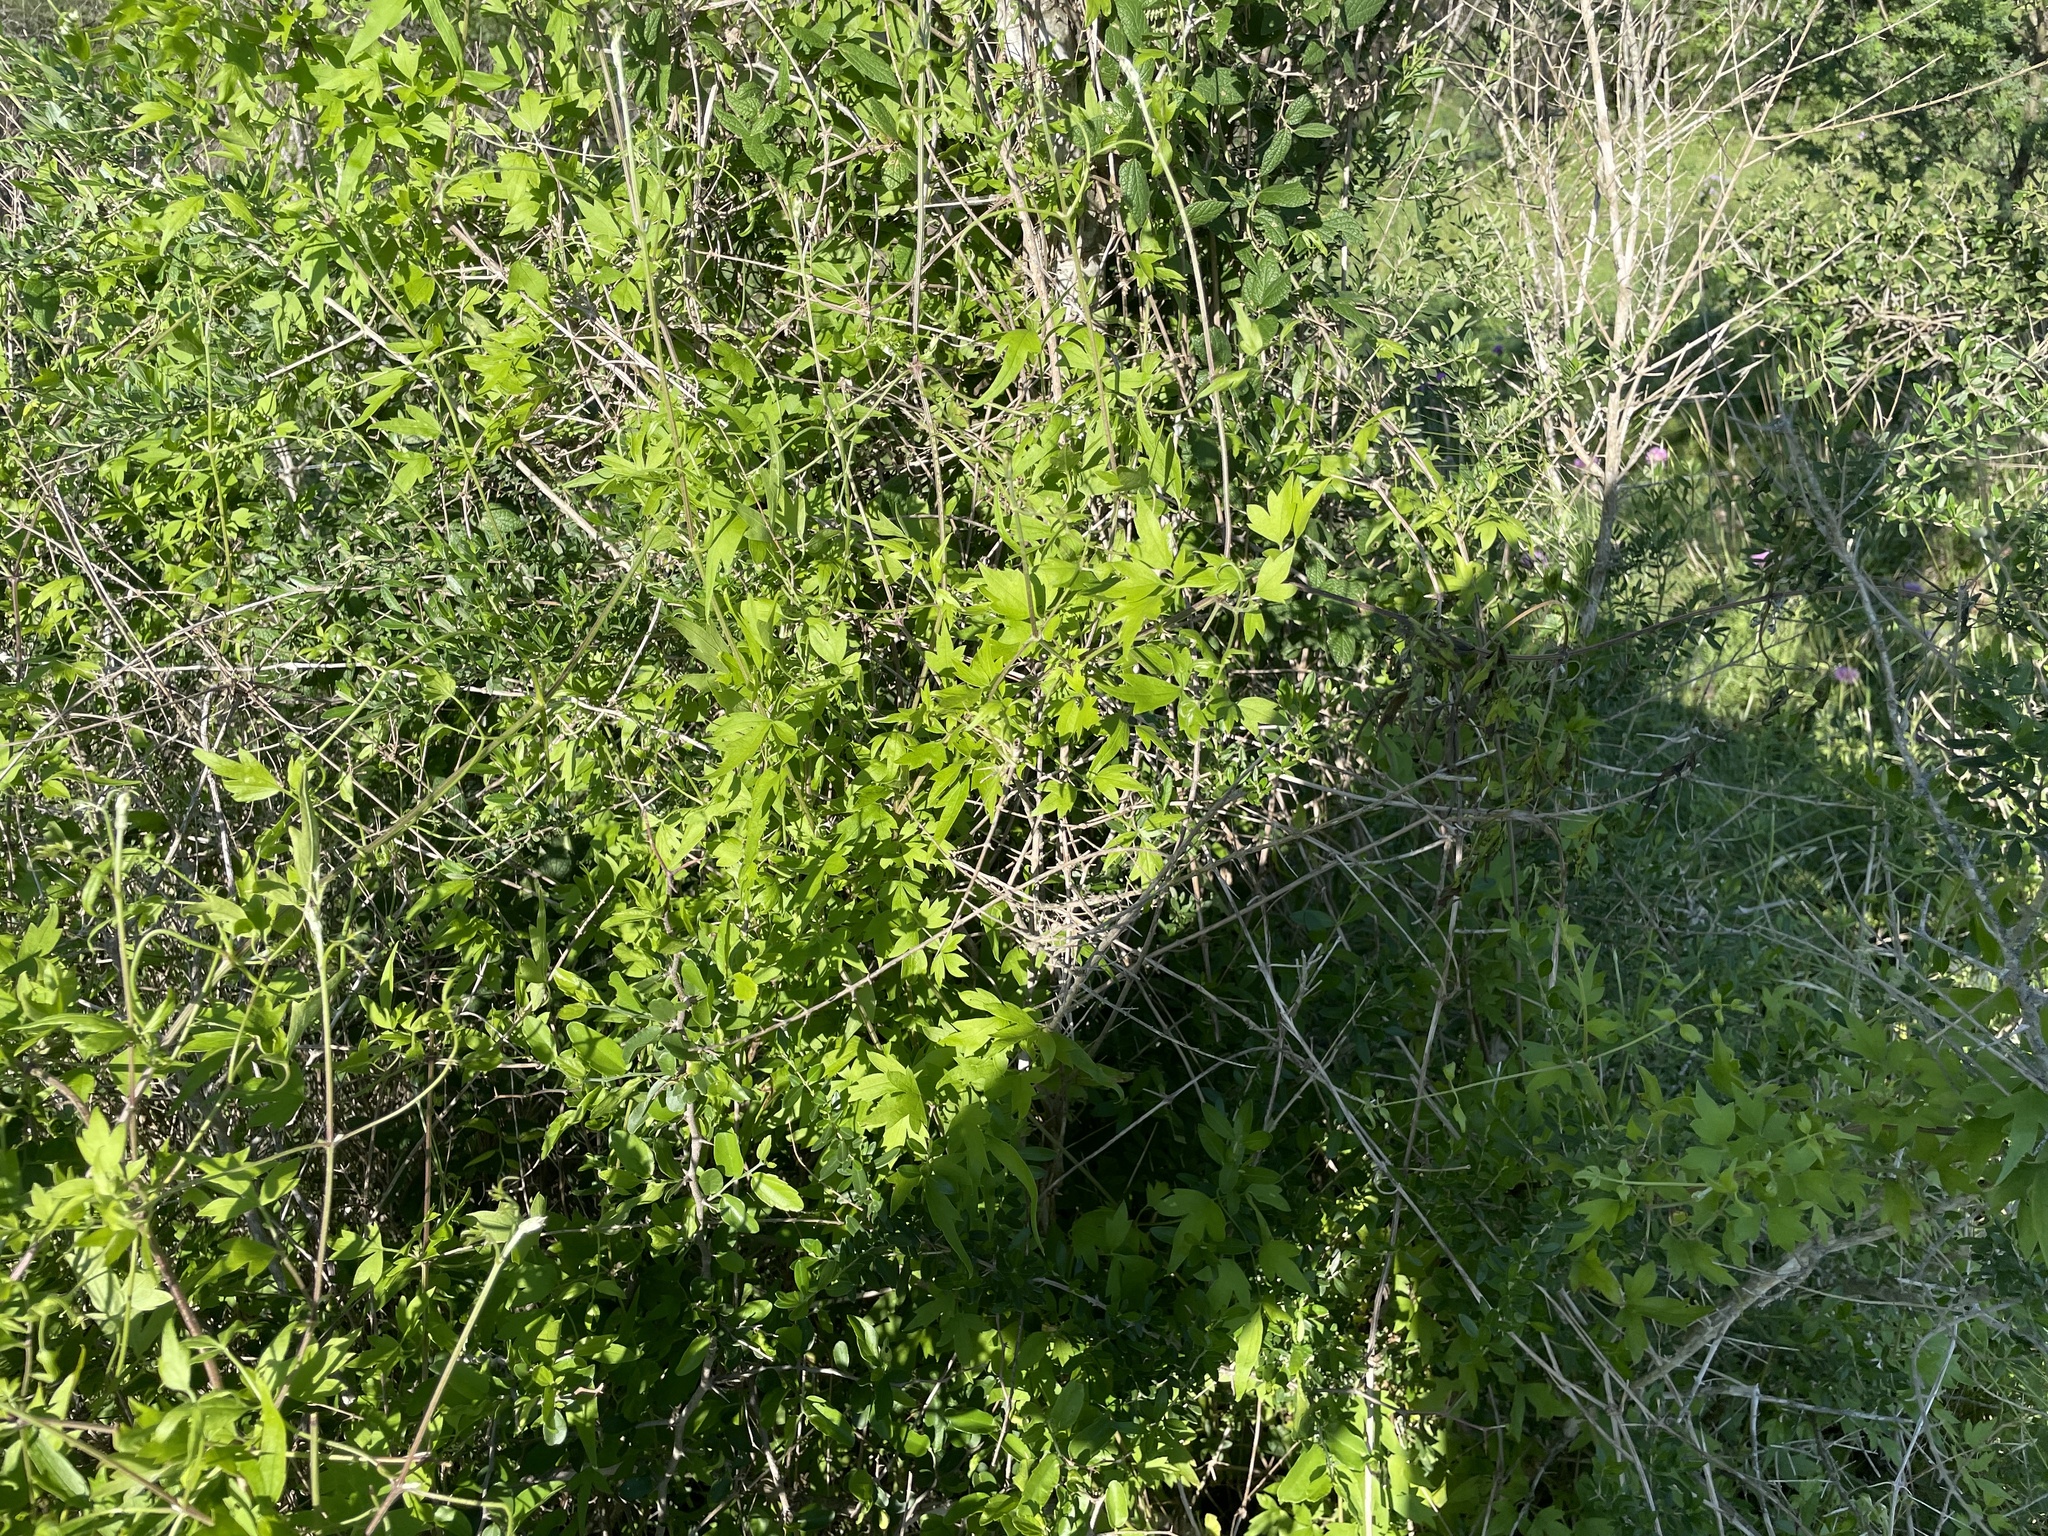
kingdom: Plantae
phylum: Tracheophyta
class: Magnoliopsida
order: Ranunculales
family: Ranunculaceae
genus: Clematis
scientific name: Clematis drummondii
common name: Texas virgin's bower
